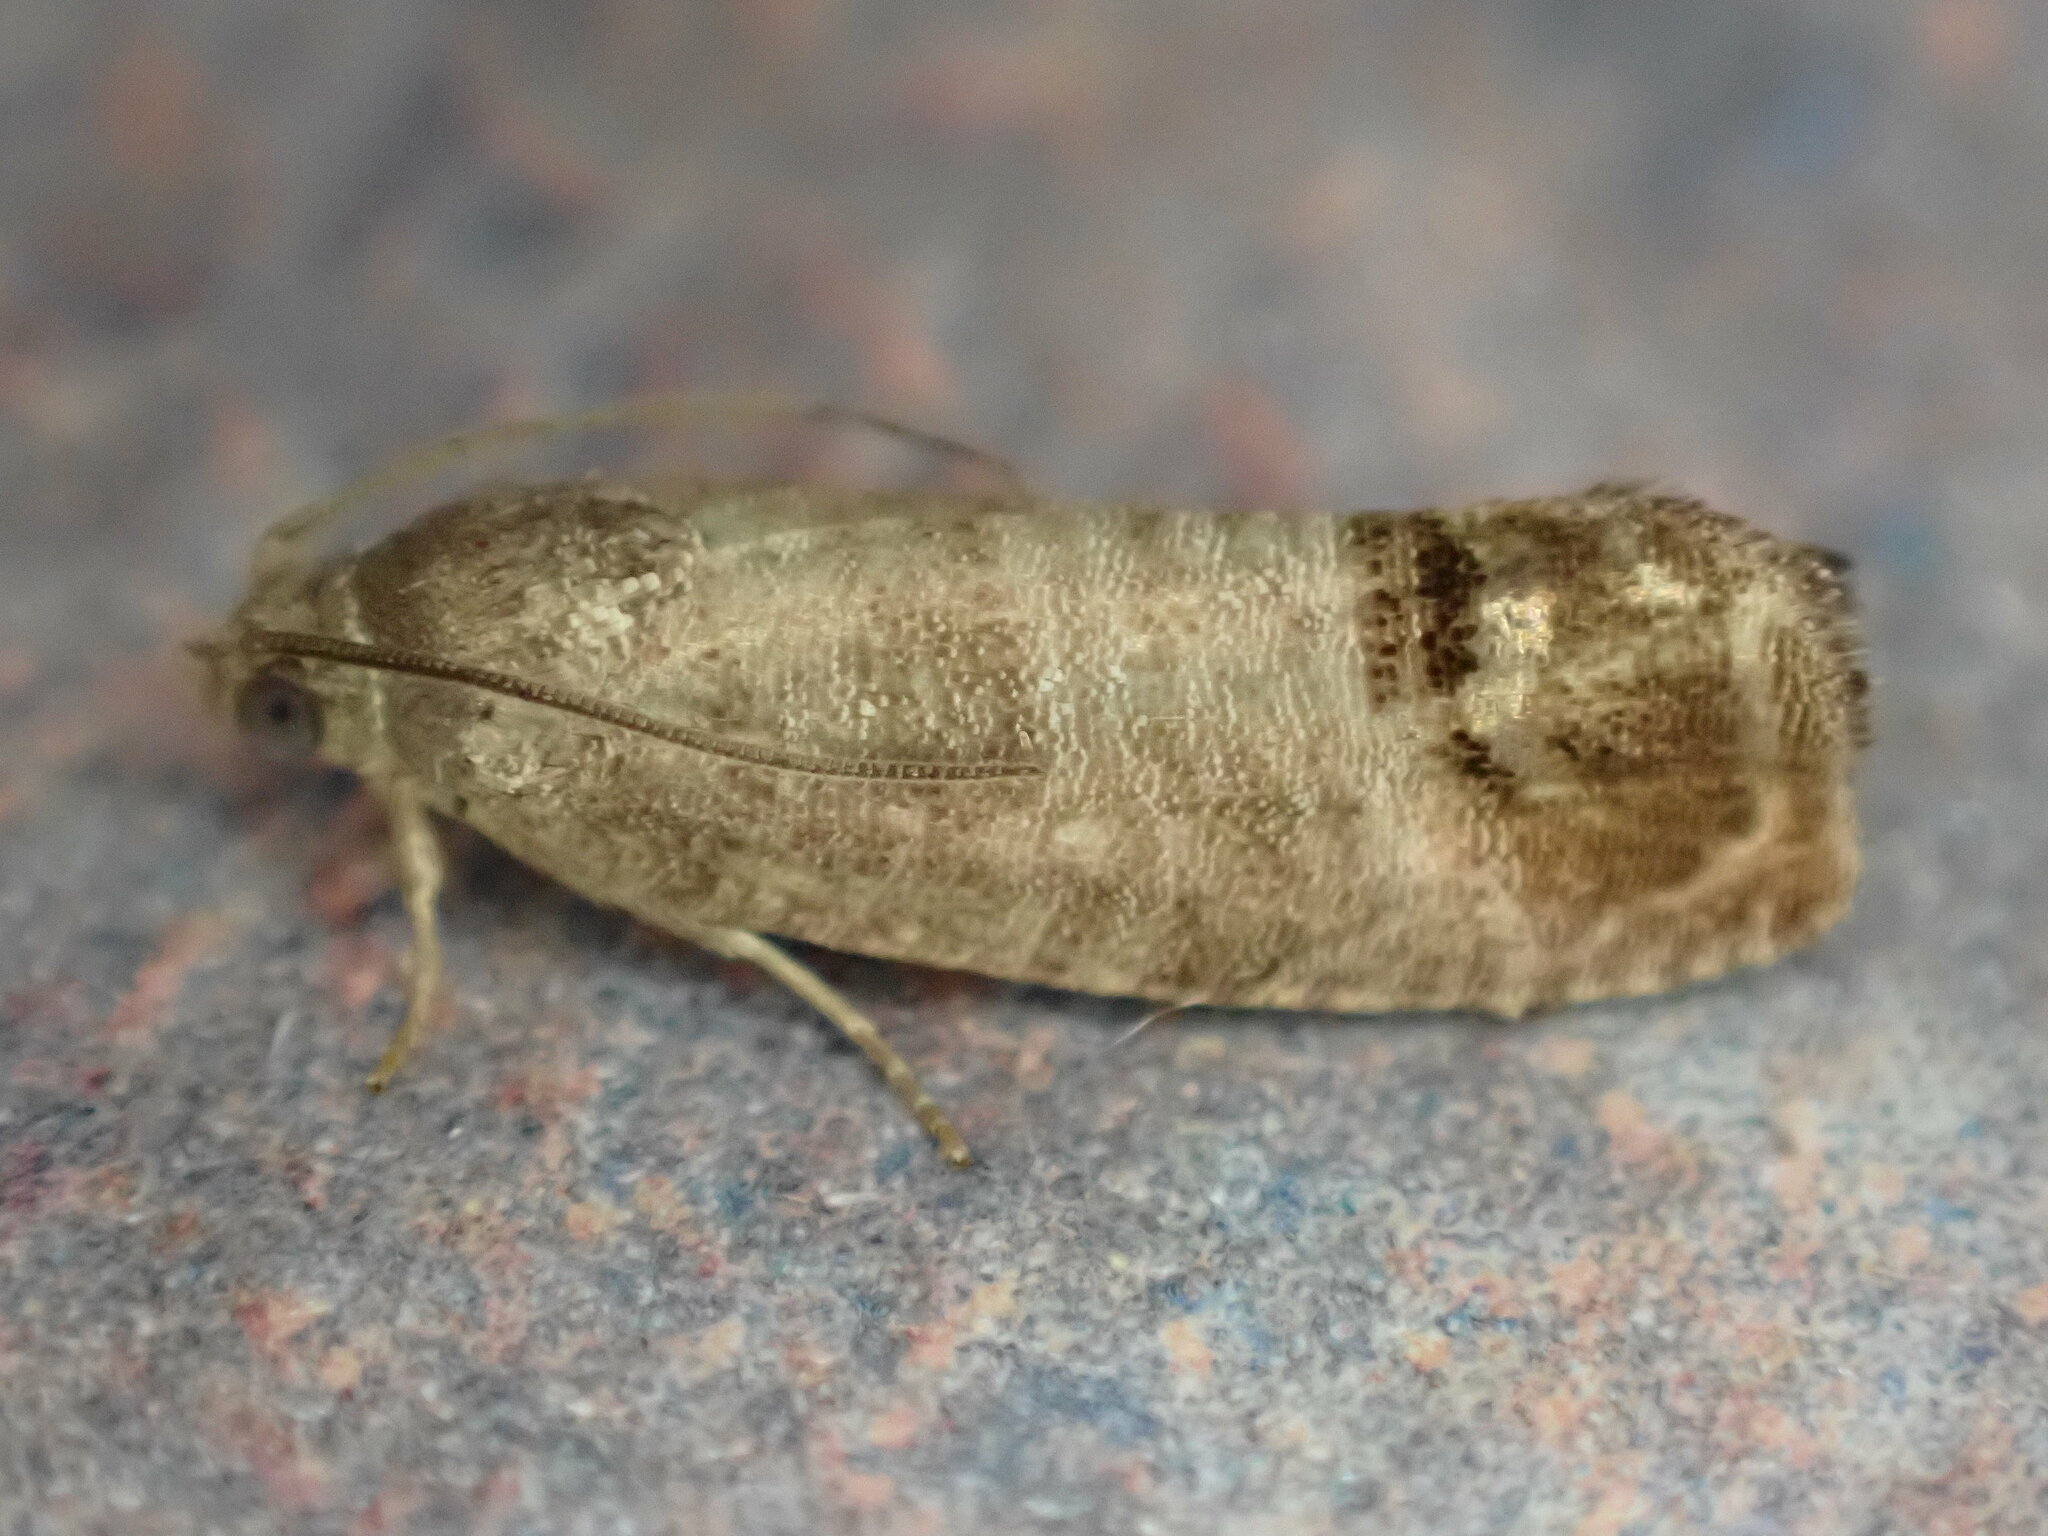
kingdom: Animalia
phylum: Arthropoda
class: Insecta
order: Lepidoptera
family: Tortricidae
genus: Cydia
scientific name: Cydia pomonella
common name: Codling moth
